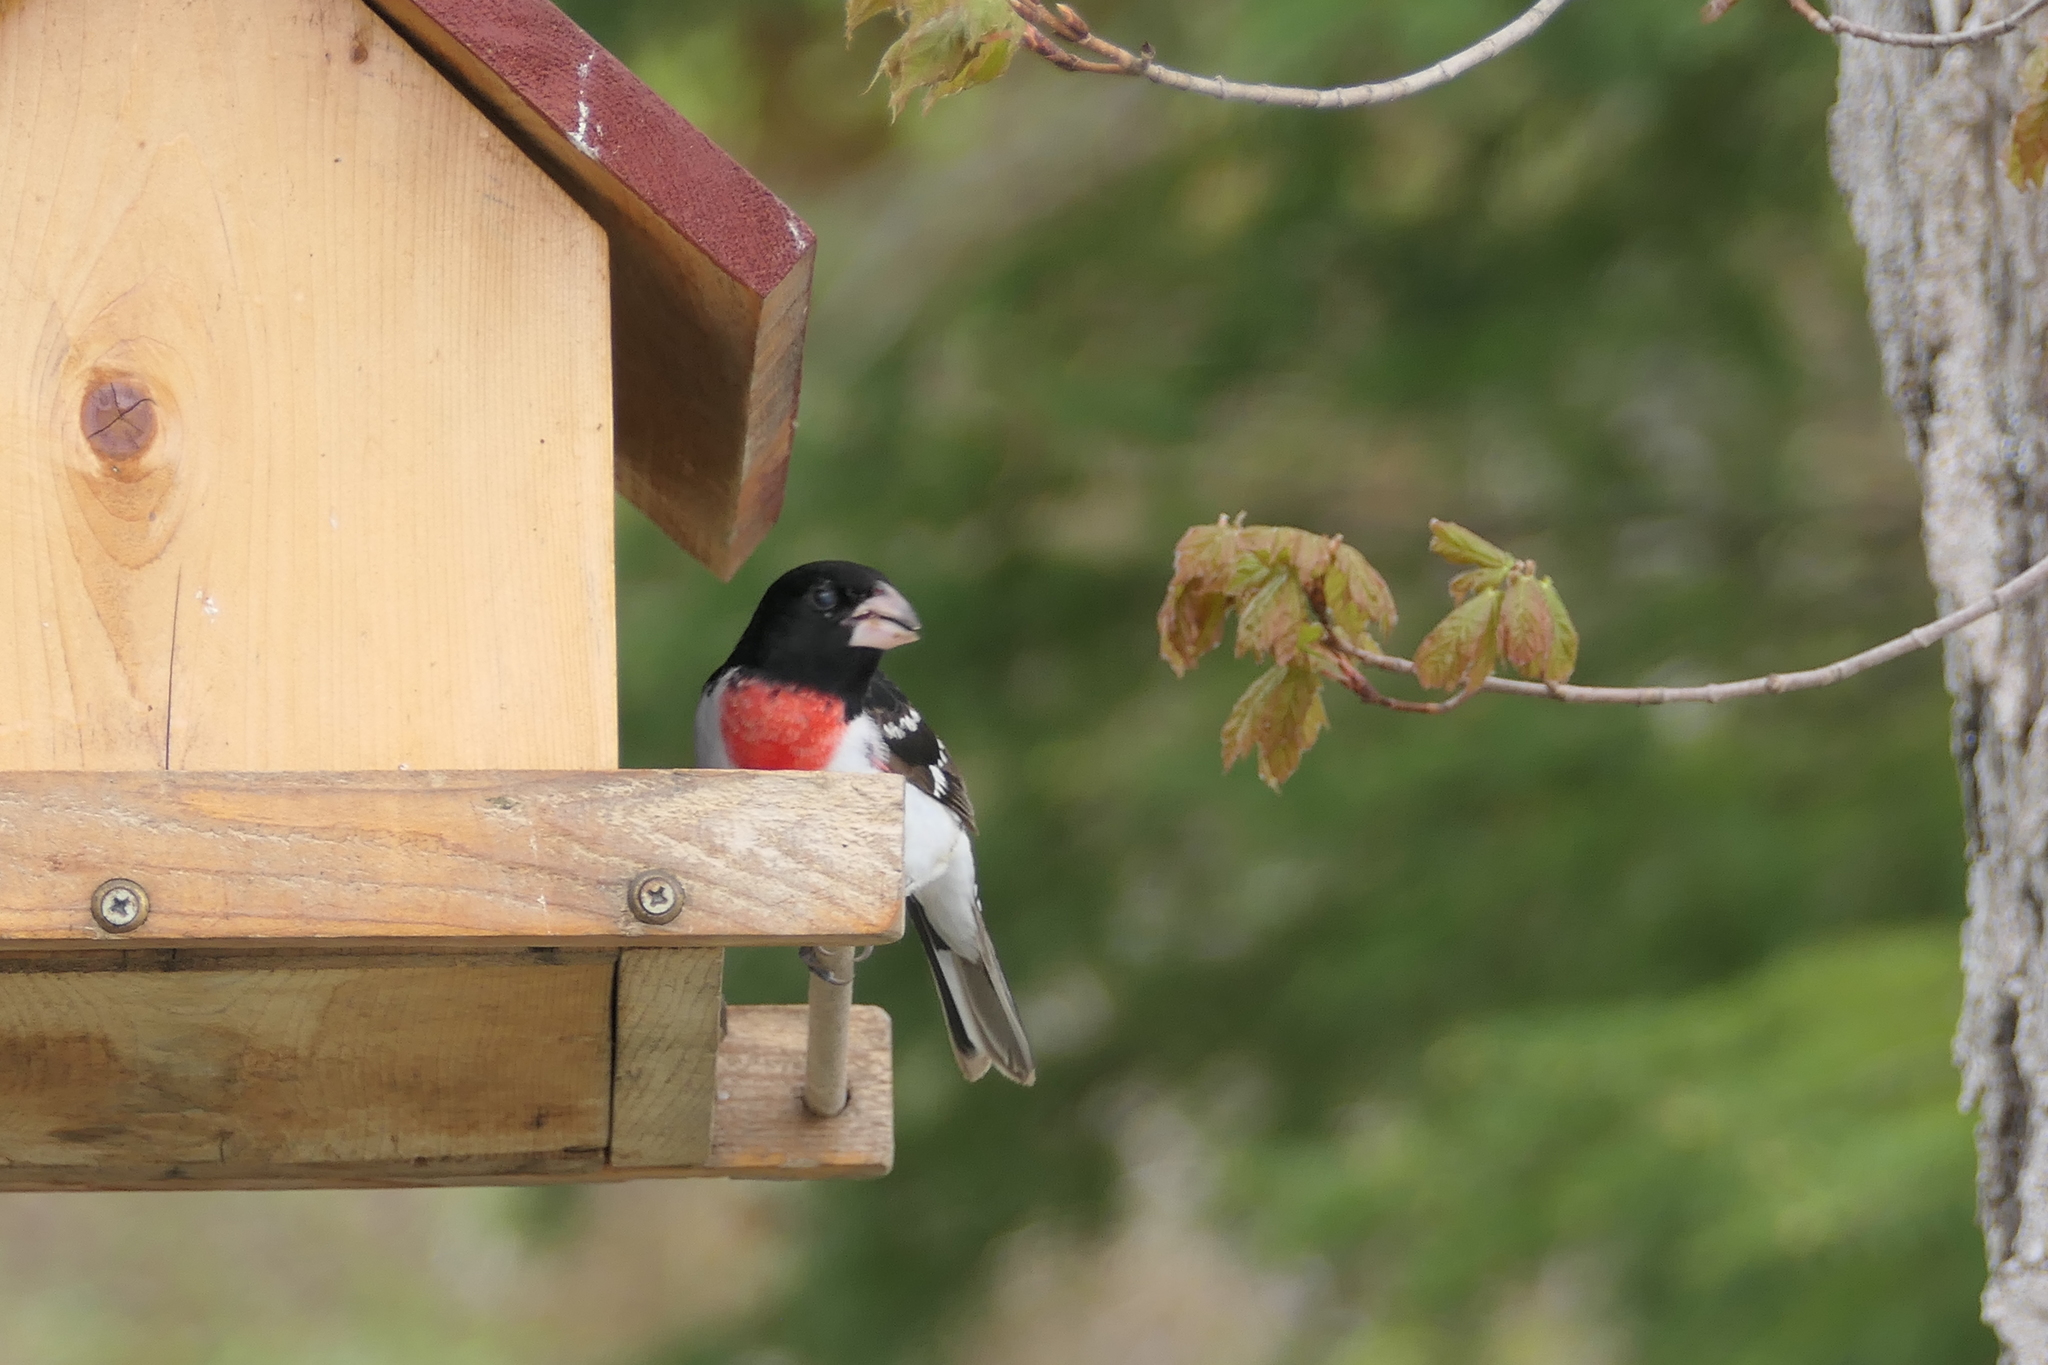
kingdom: Animalia
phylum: Chordata
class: Aves
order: Passeriformes
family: Cardinalidae
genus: Pheucticus
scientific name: Pheucticus ludovicianus
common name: Rose-breasted grosbeak
